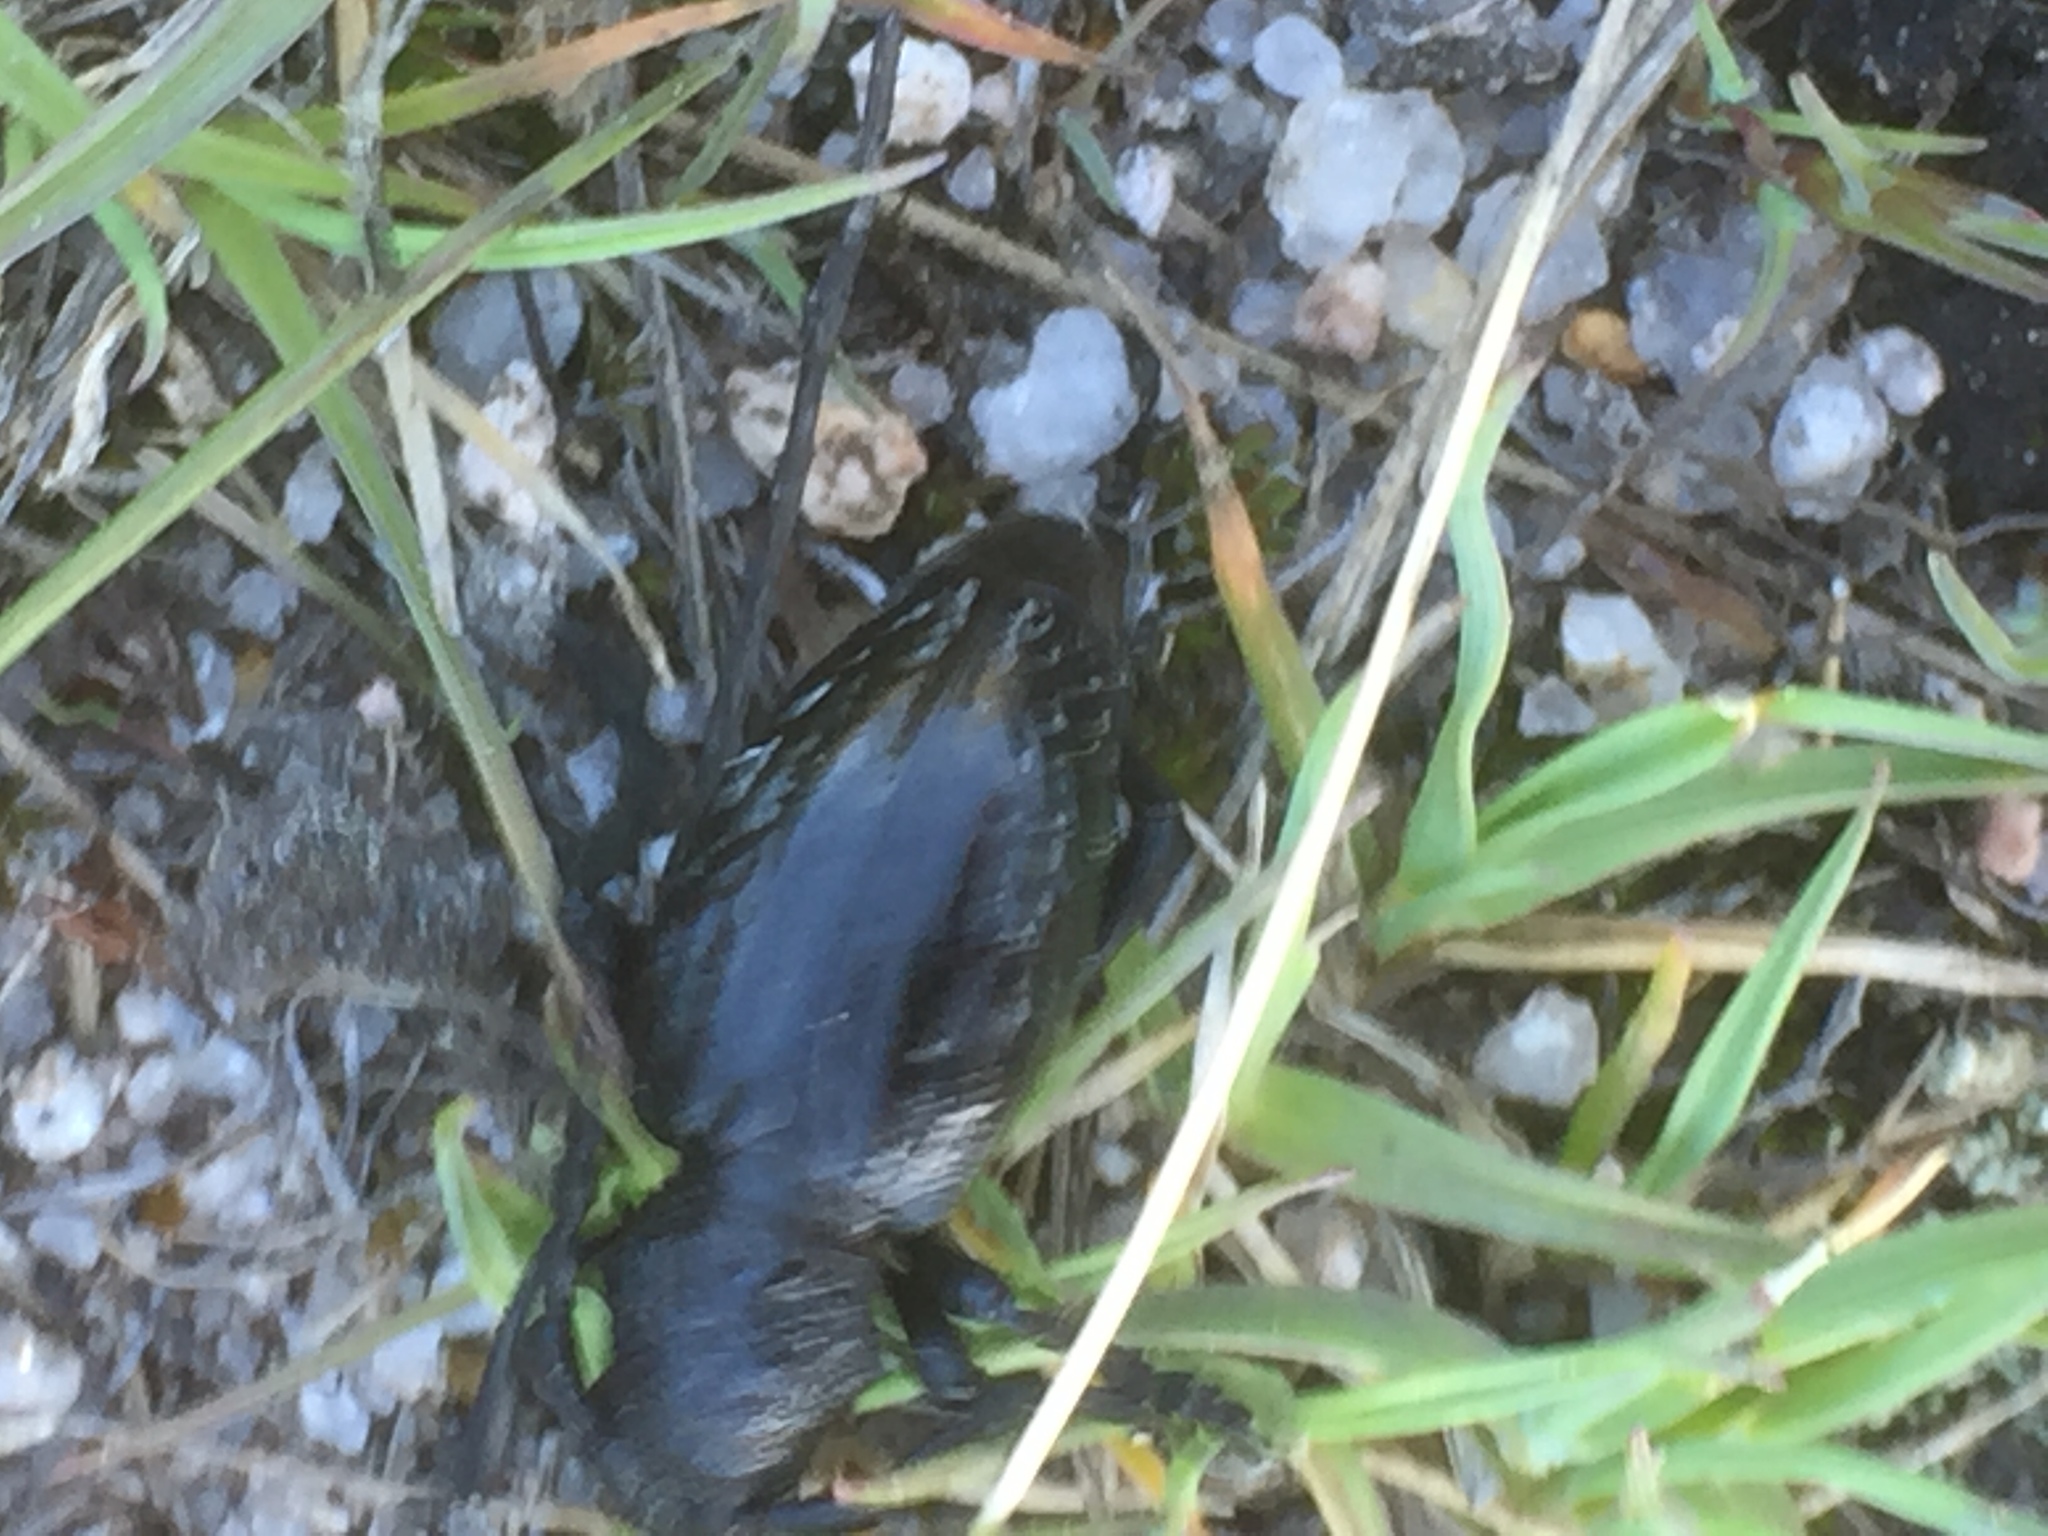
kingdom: Animalia
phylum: Arthropoda
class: Insecta
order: Coleoptera
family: Cerambycidae
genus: Iberodorcadion
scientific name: Iberodorcadion brannani
